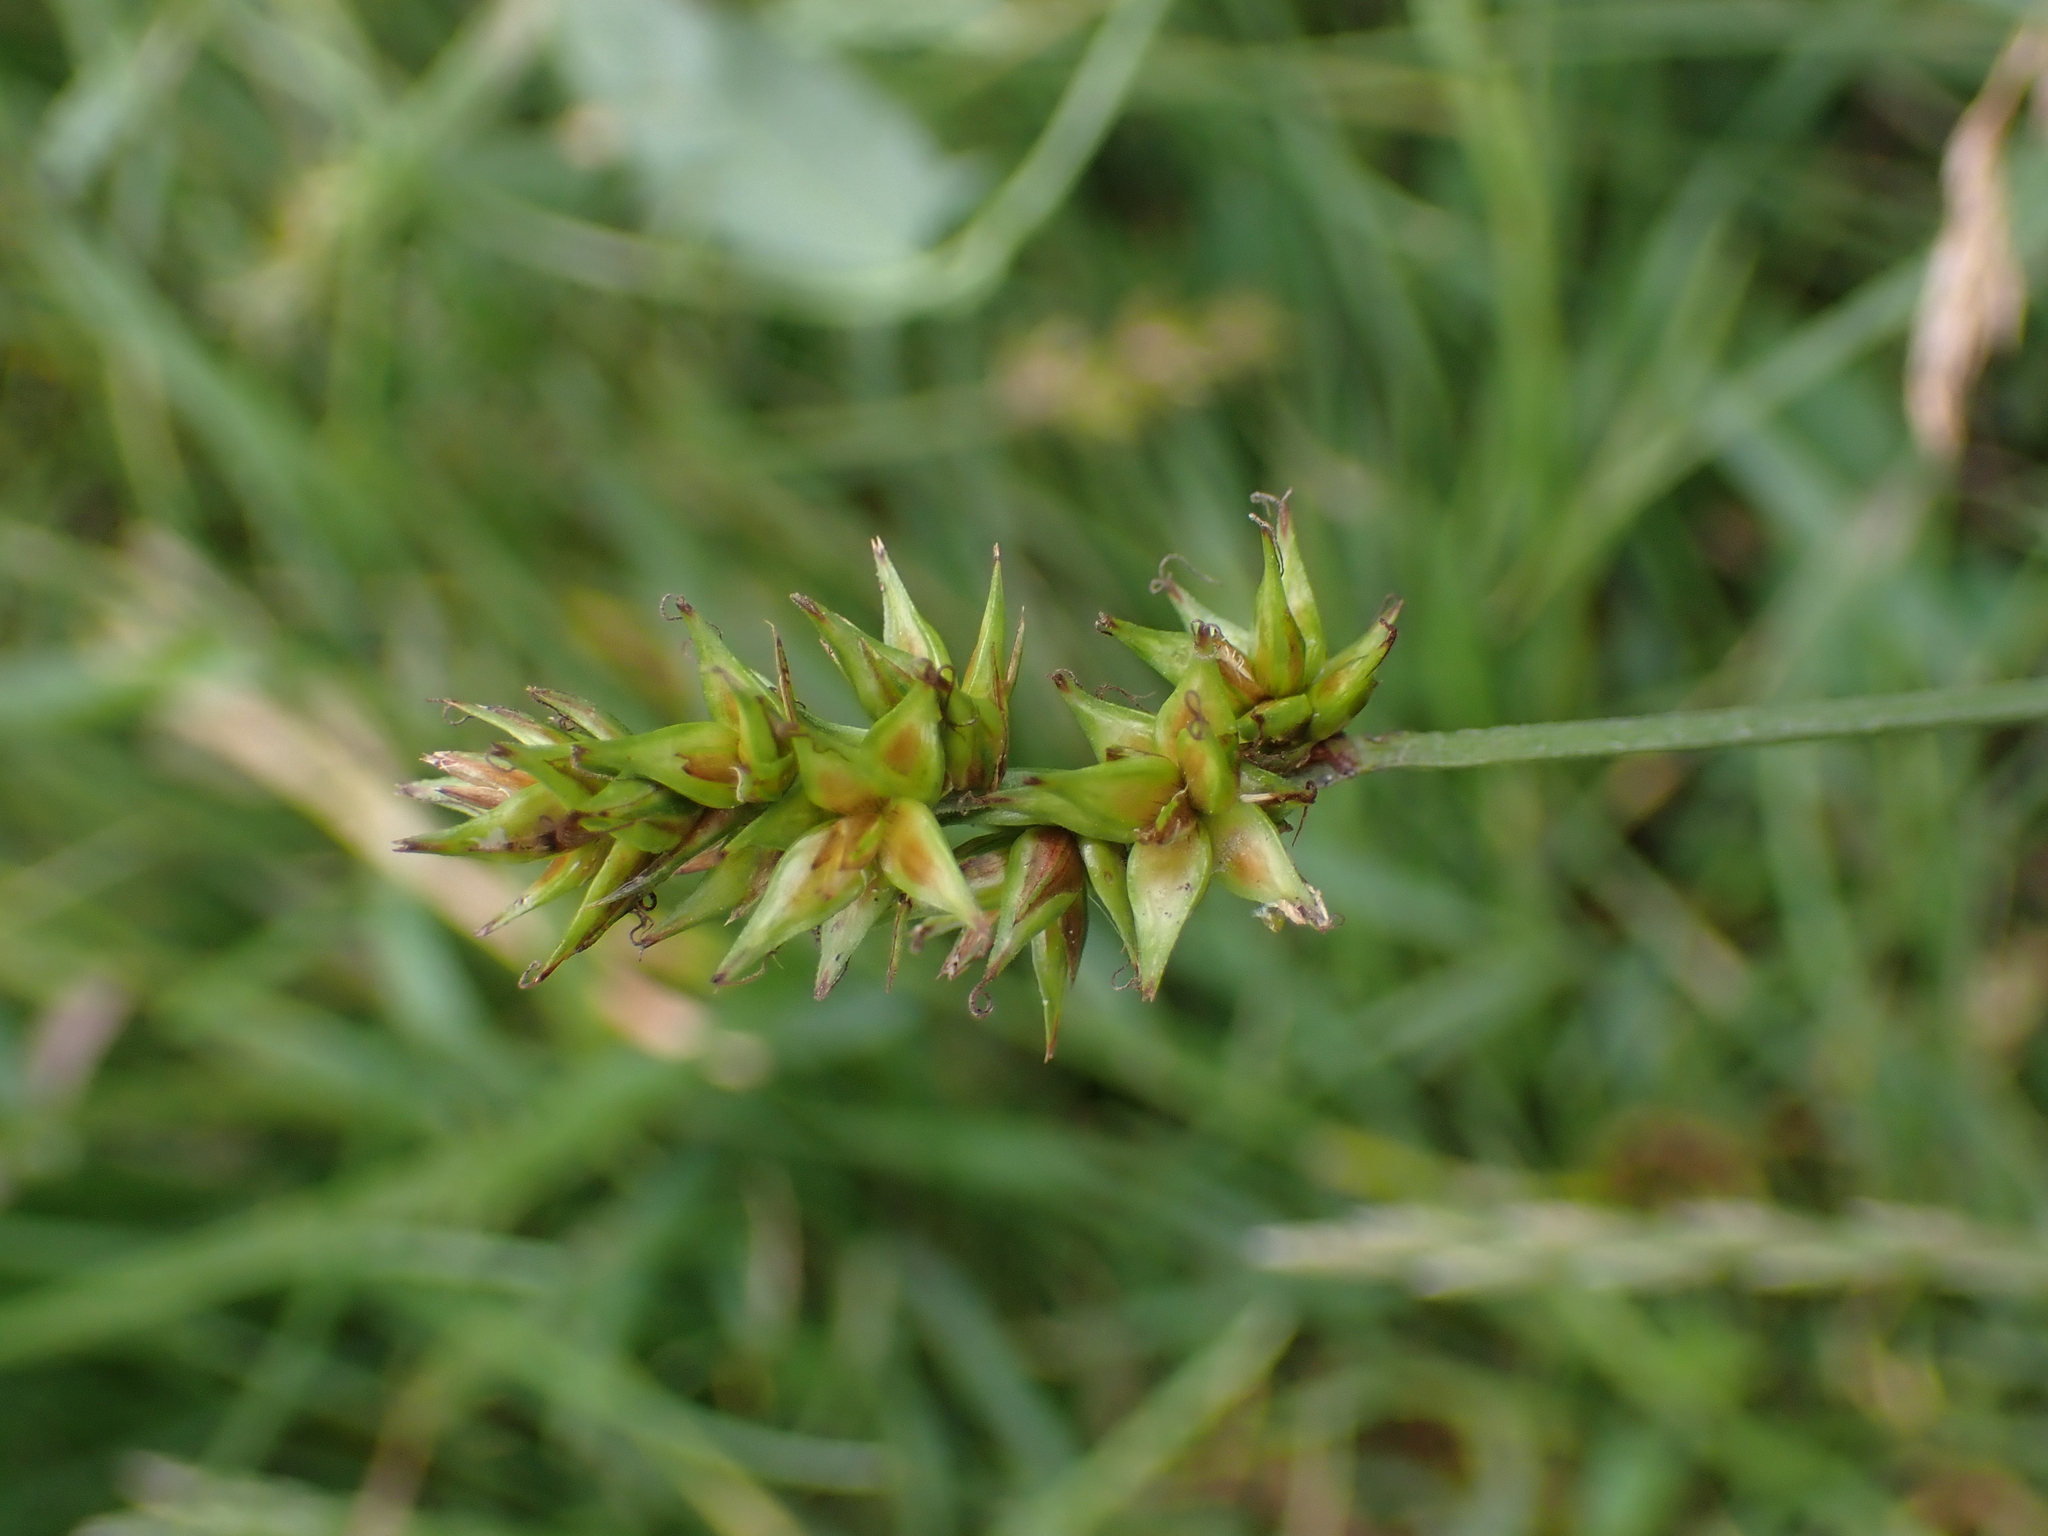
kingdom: Plantae
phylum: Tracheophyta
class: Liliopsida
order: Poales
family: Cyperaceae
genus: Carex
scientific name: Carex spicata
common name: Spiked sedge
